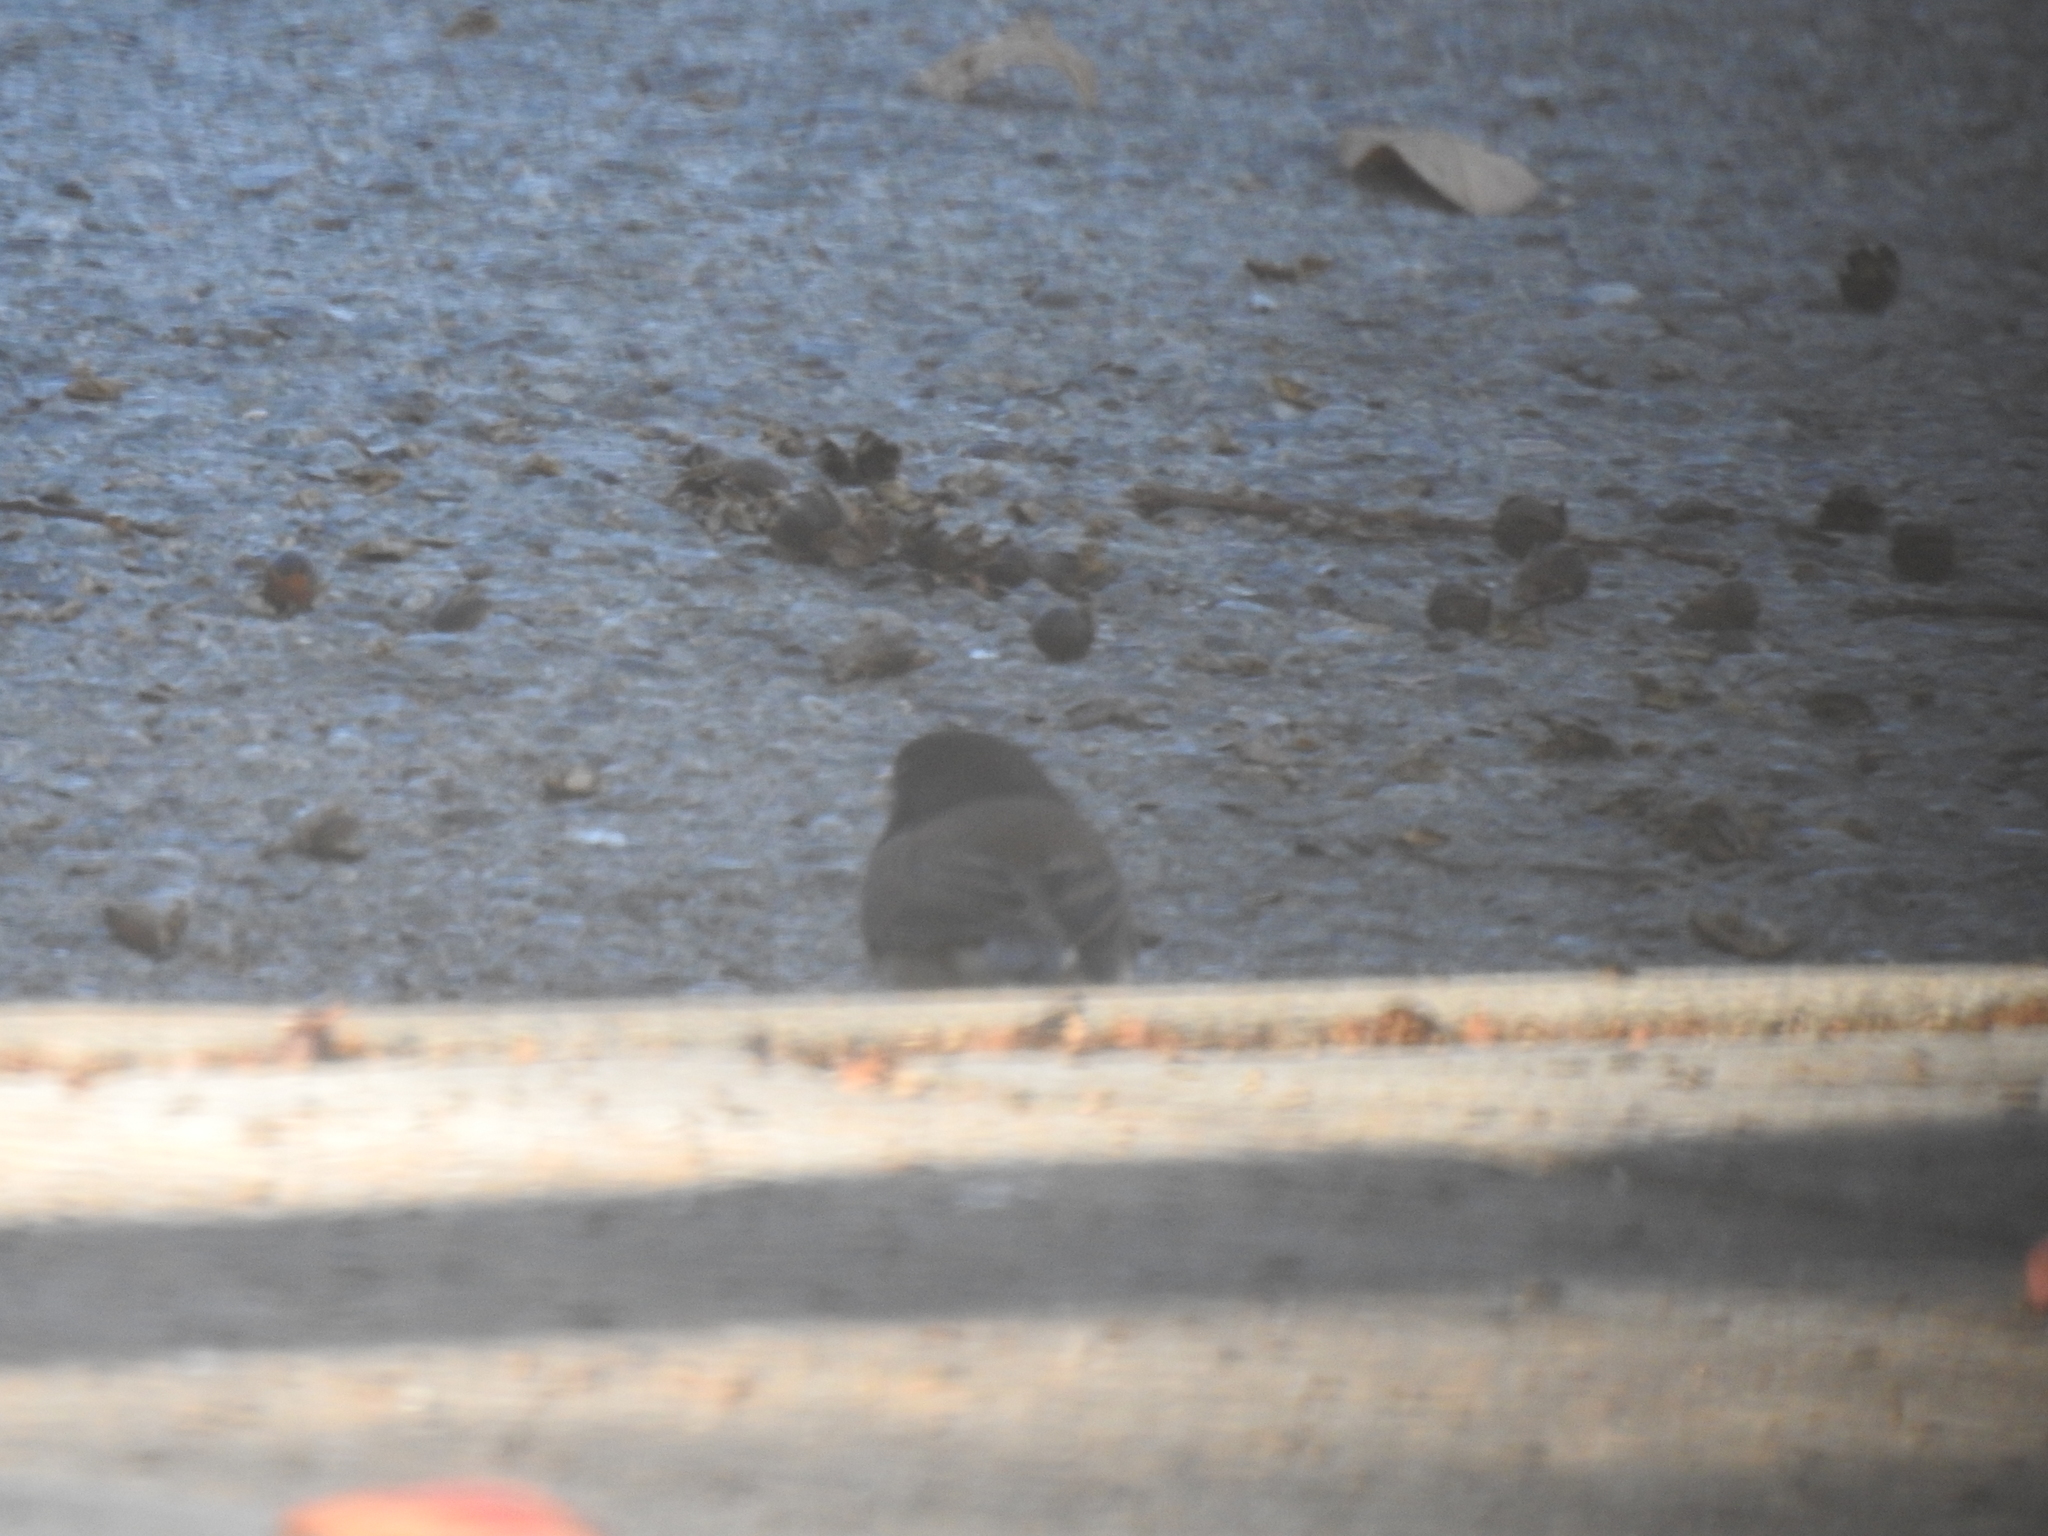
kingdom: Animalia
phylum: Chordata
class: Aves
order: Passeriformes
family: Passerellidae
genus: Junco
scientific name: Junco hyemalis
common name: Dark-eyed junco
